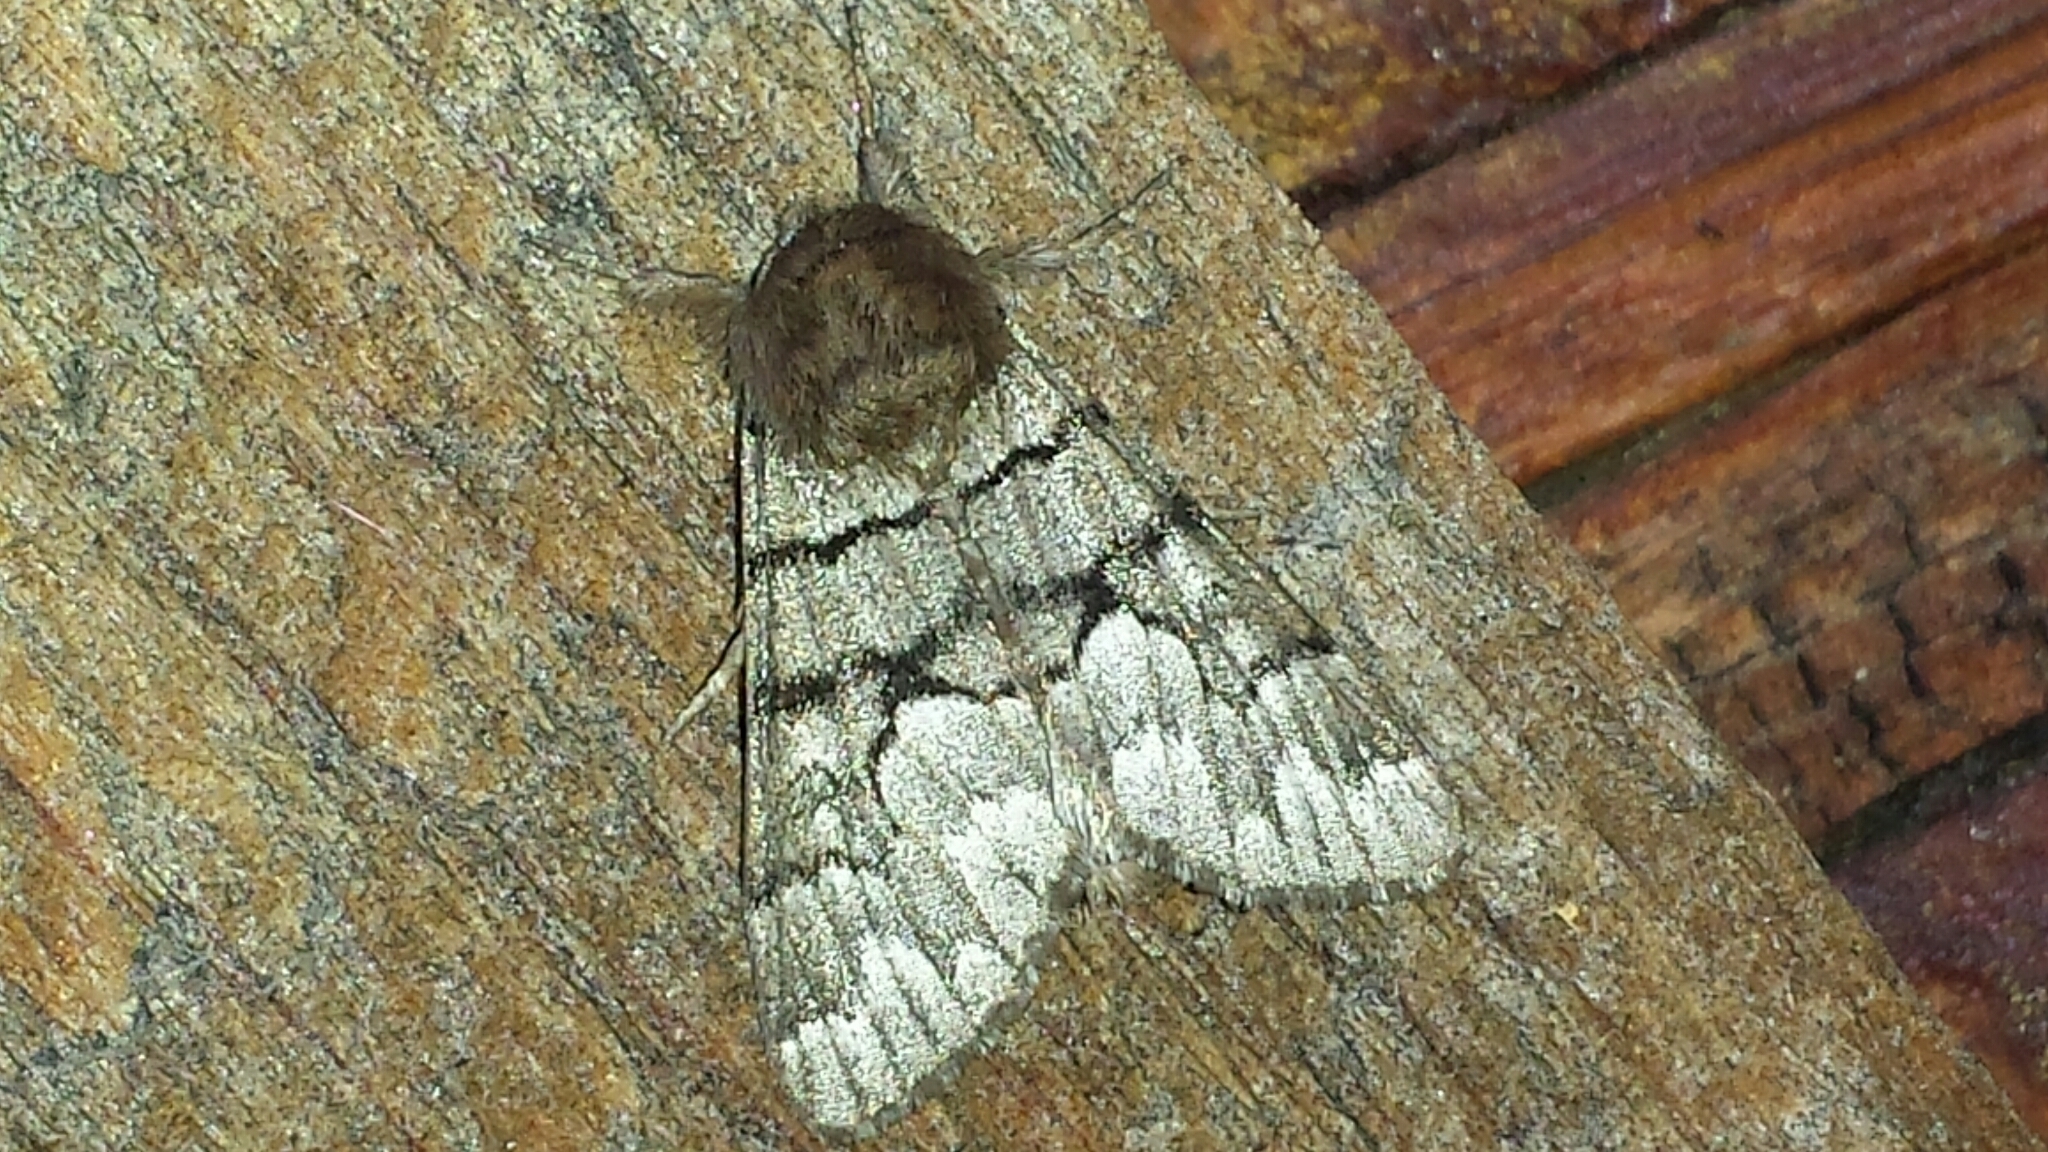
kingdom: Animalia
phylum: Arthropoda
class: Insecta
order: Lepidoptera
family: Noctuidae
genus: Panthea
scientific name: Panthea furcilla
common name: Eastern panthea moth
